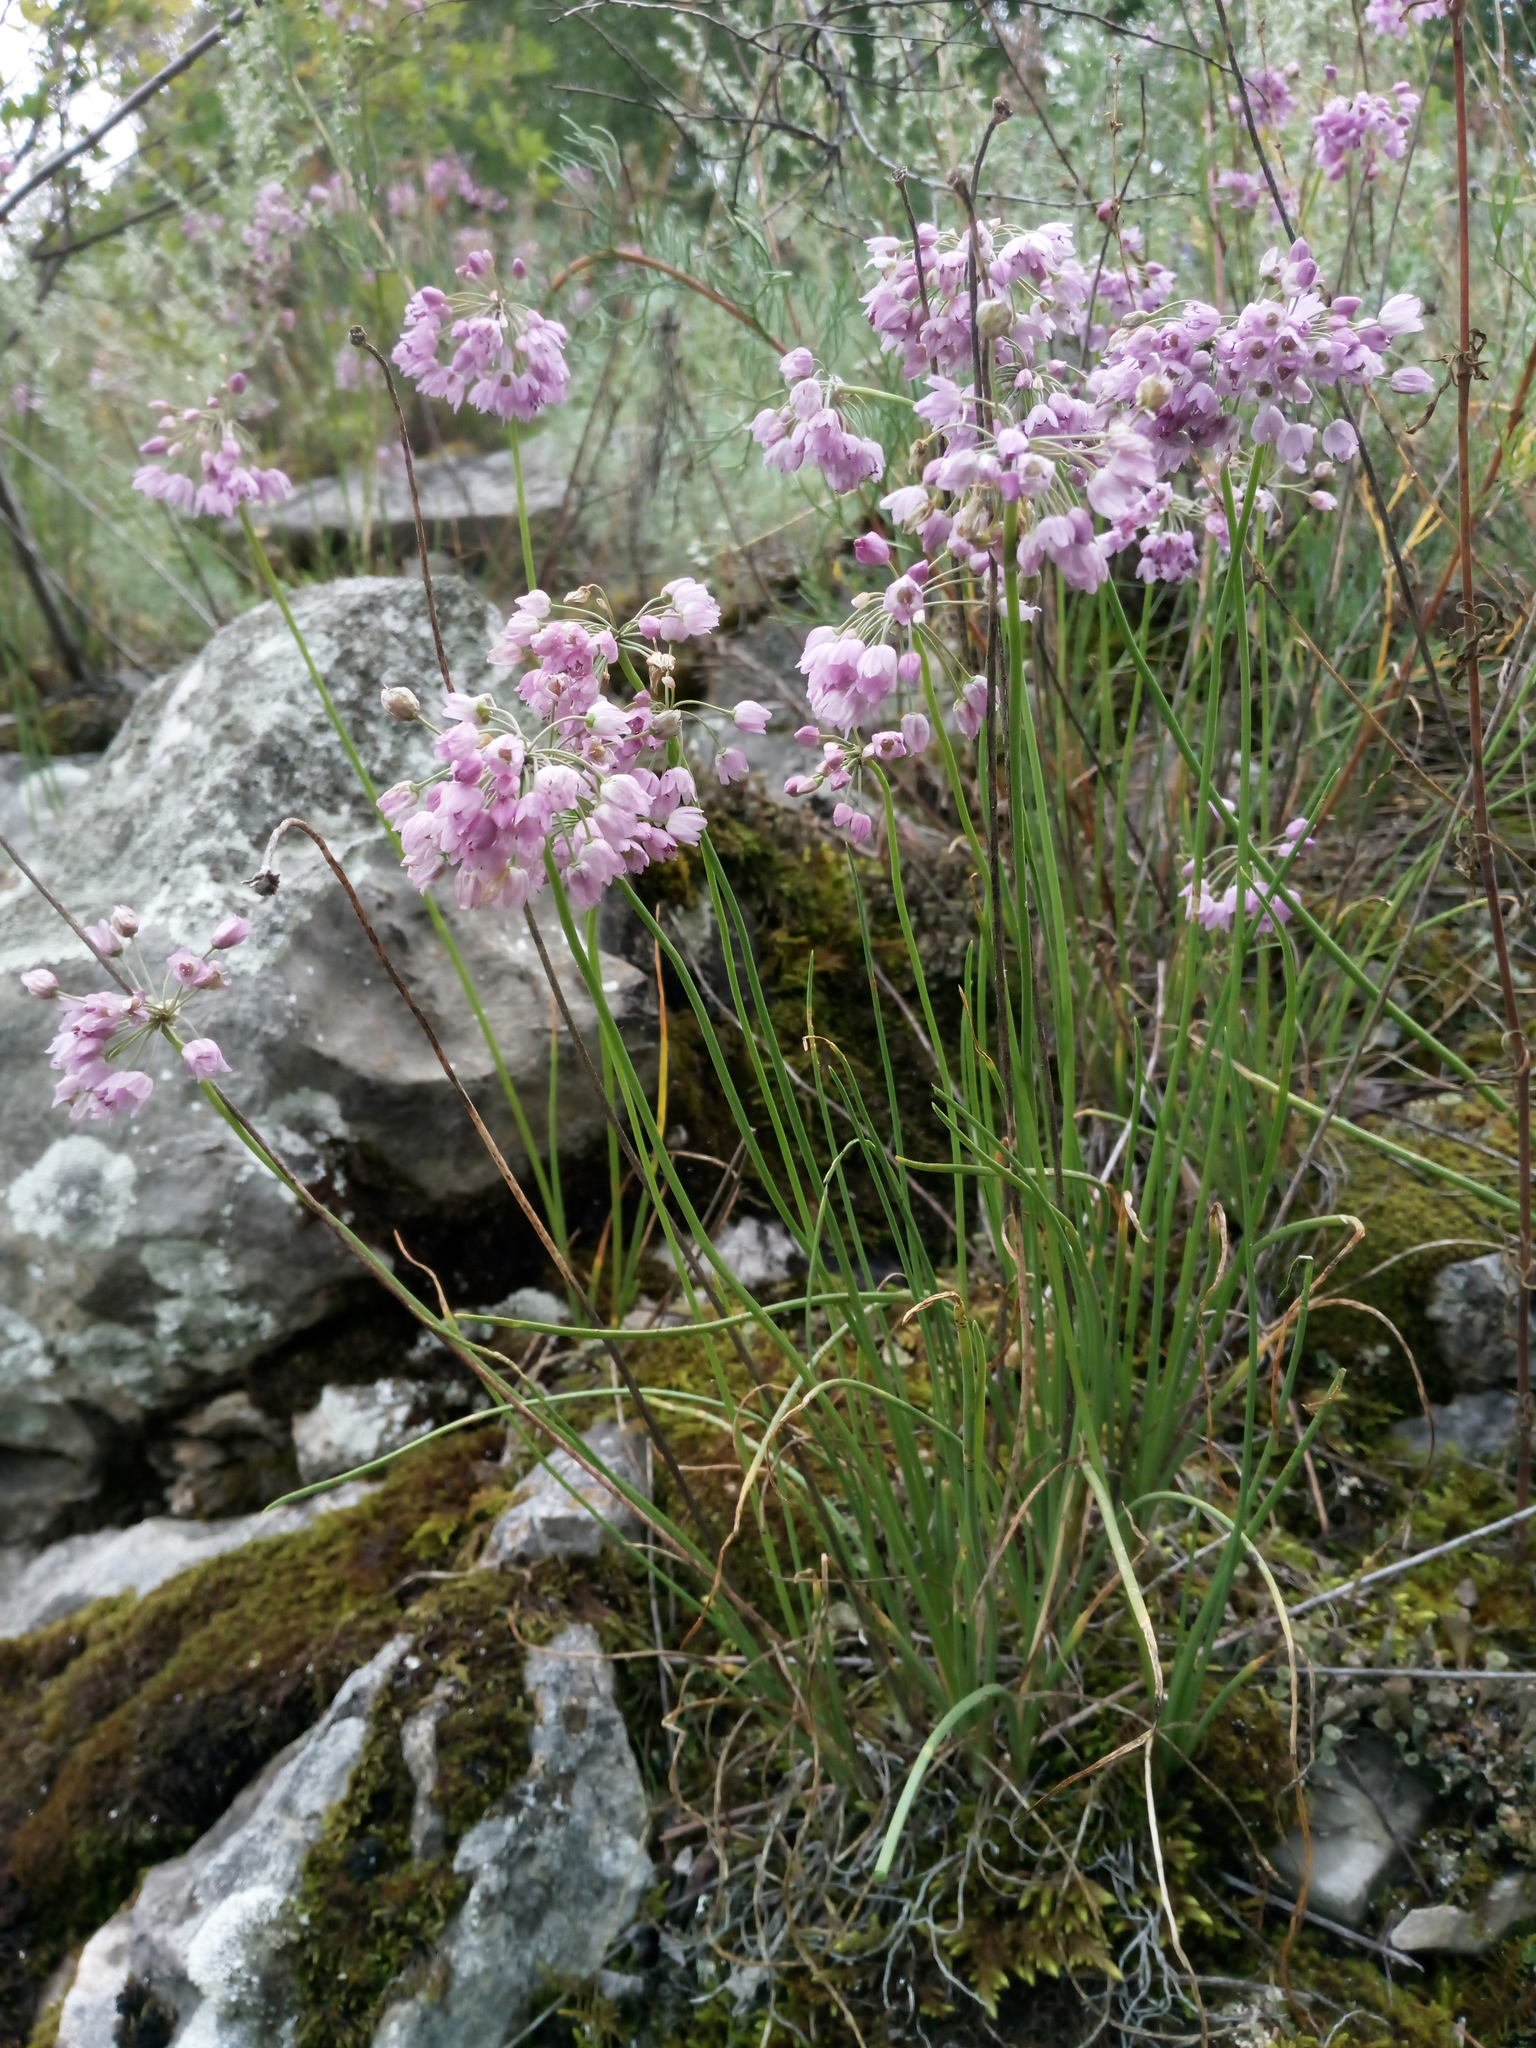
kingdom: Plantae
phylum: Tracheophyta
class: Liliopsida
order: Asparagales
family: Amaryllidaceae
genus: Allium
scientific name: Allium rubens
